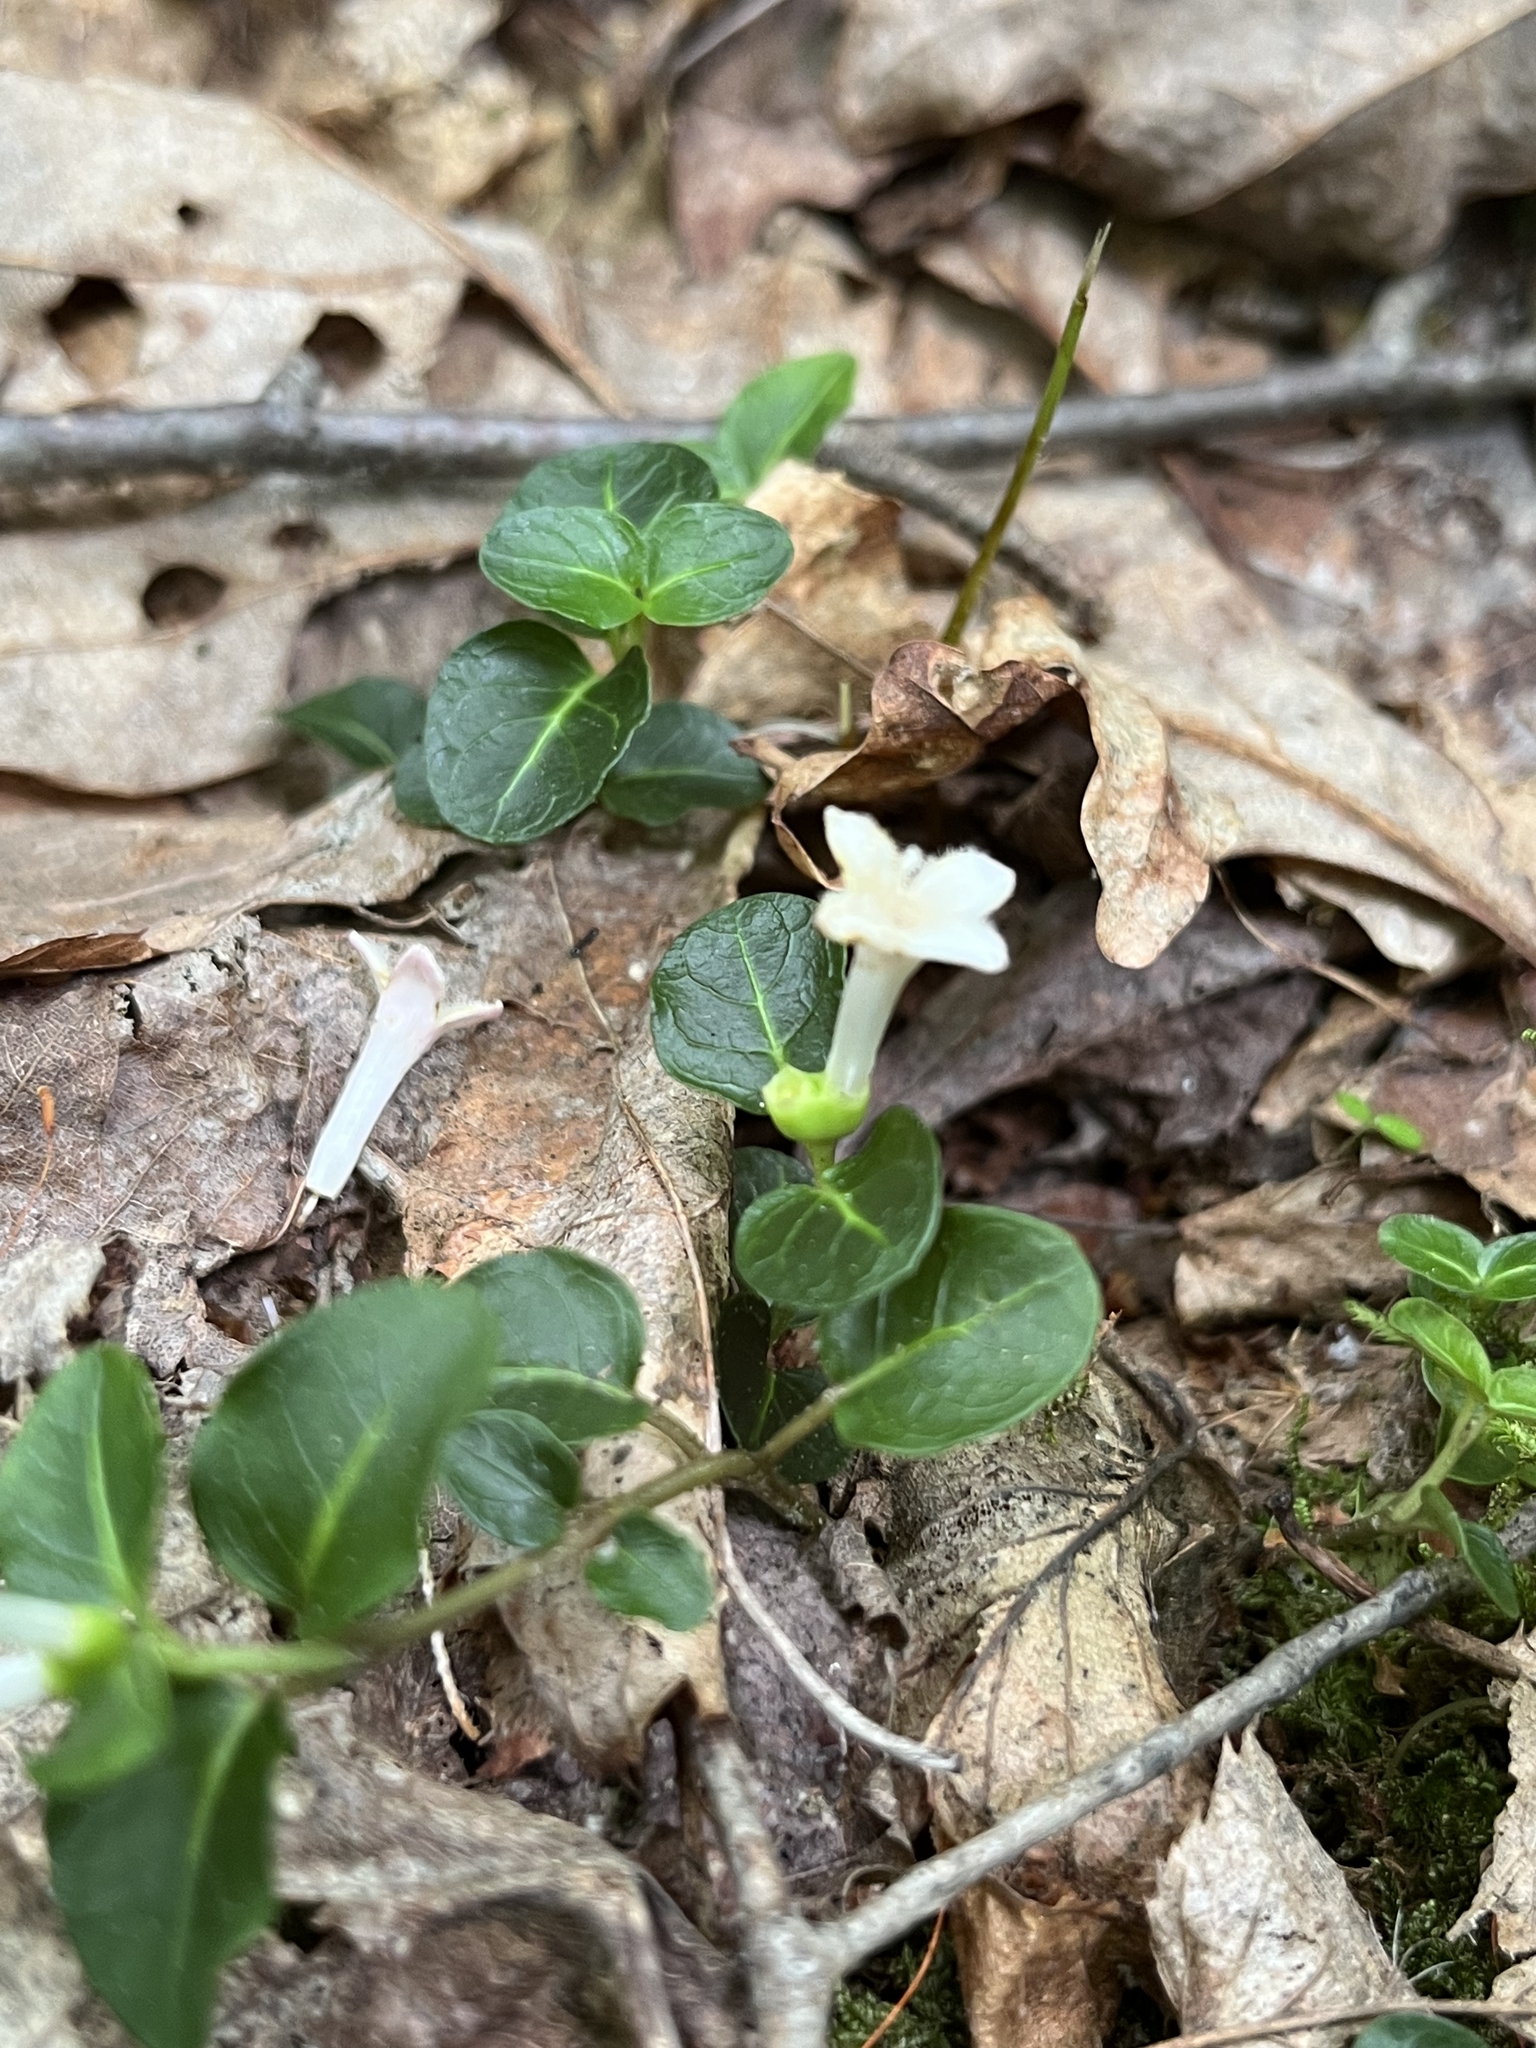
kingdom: Plantae
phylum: Tracheophyta
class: Magnoliopsida
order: Gentianales
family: Rubiaceae
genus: Mitchella
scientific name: Mitchella repens
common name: Partridge-berry
